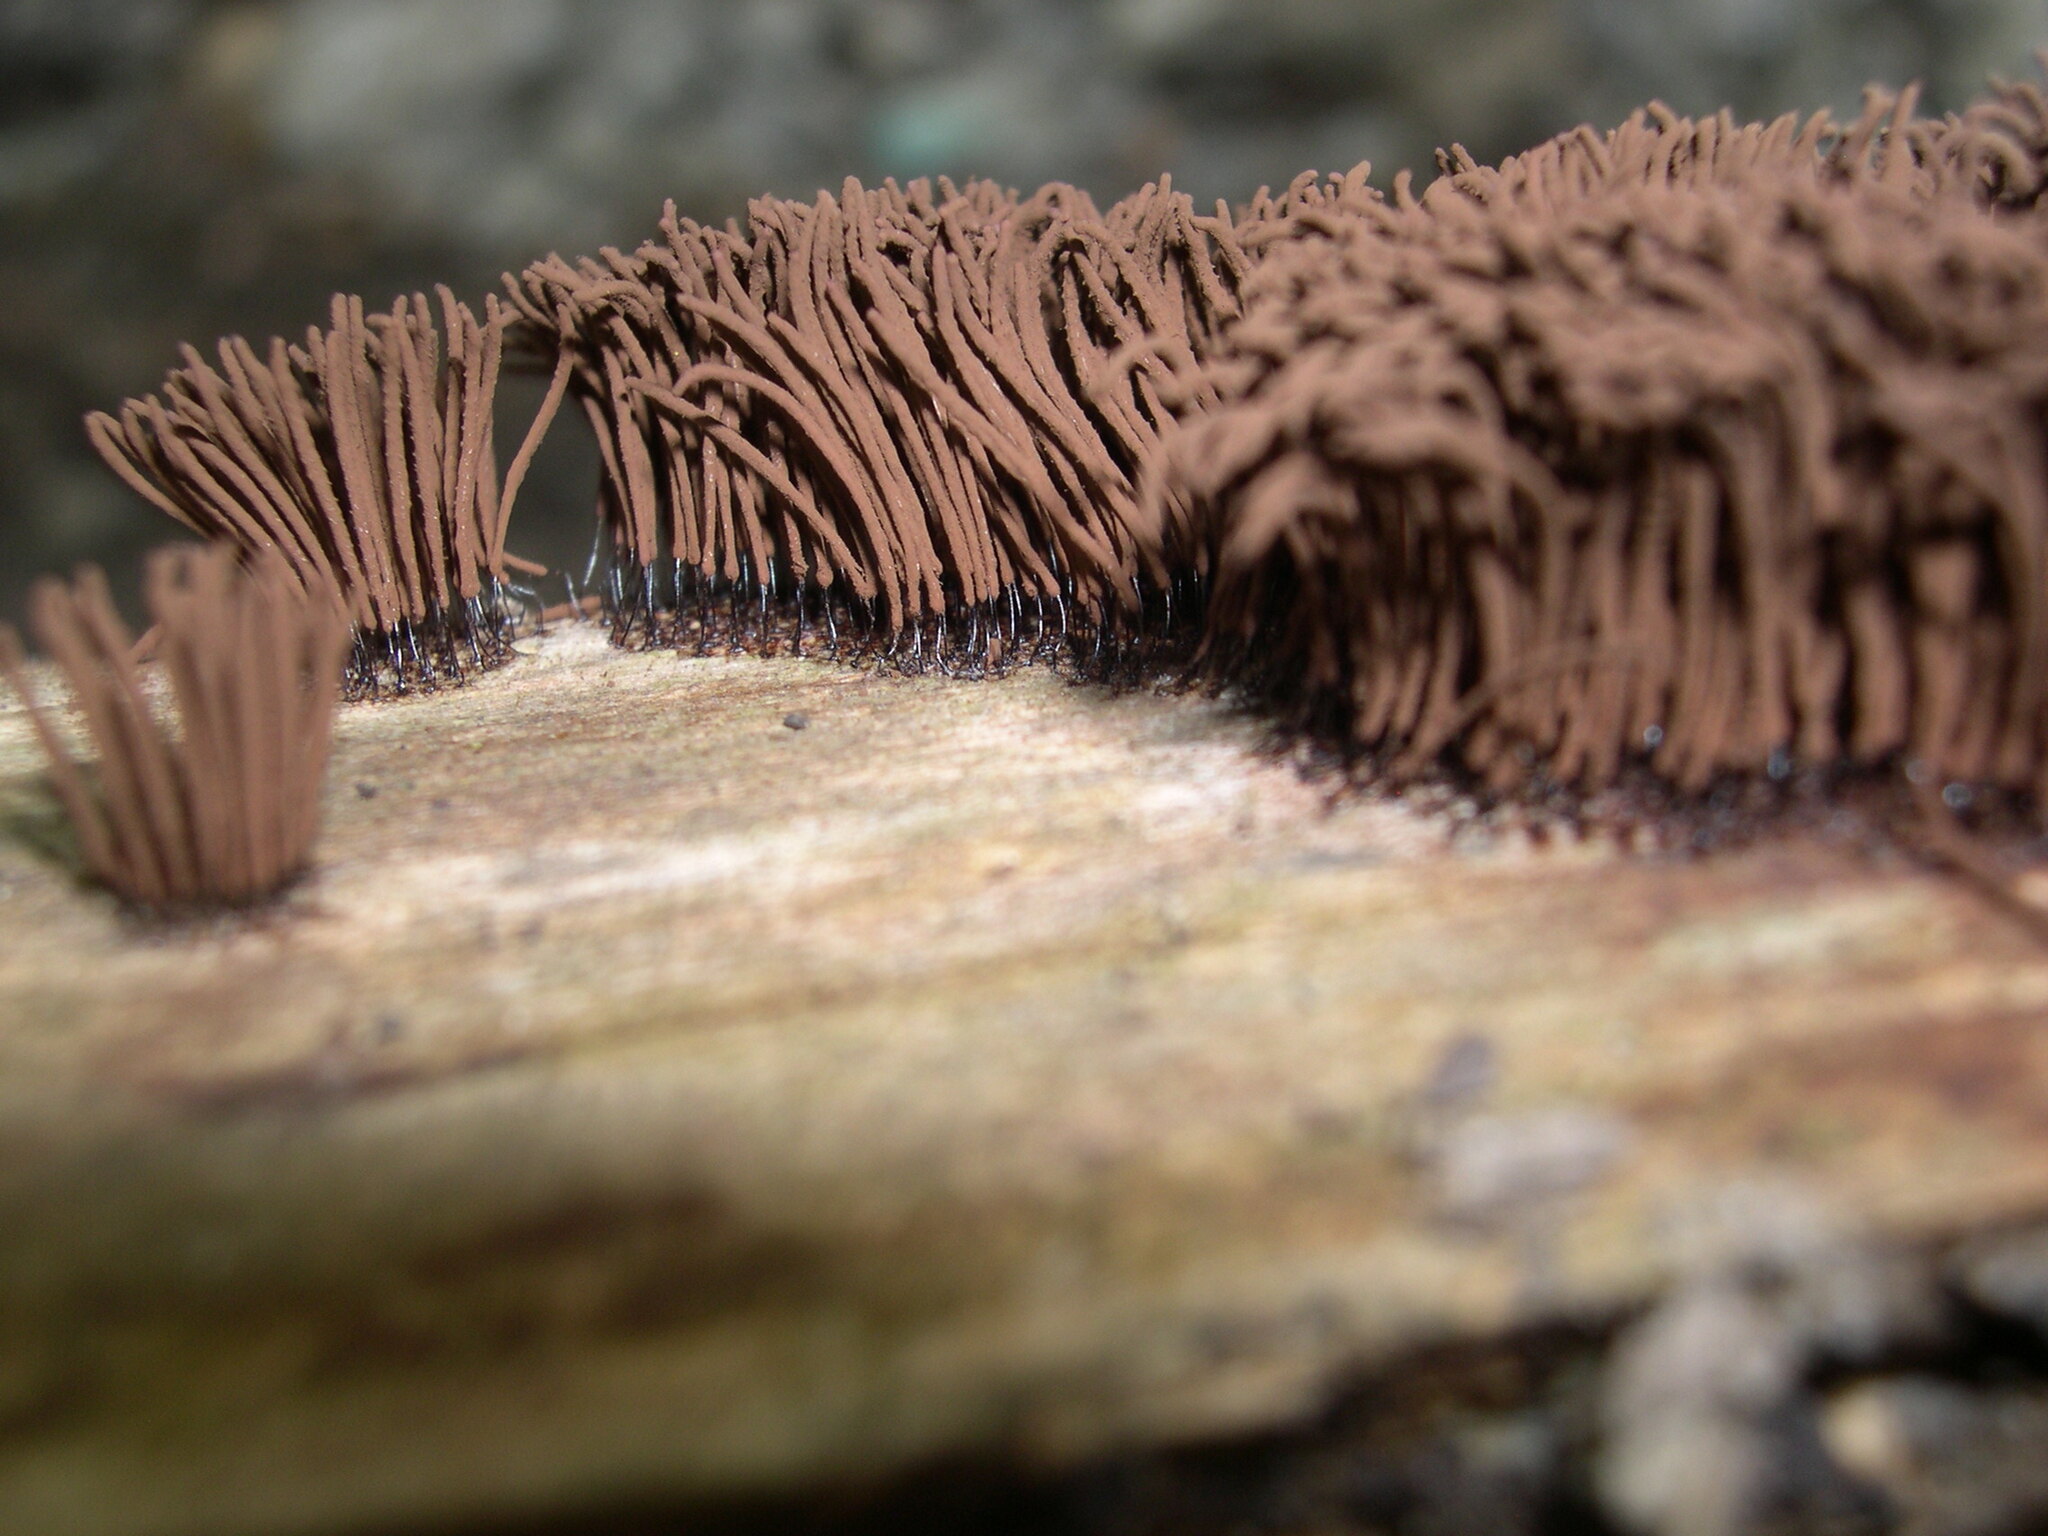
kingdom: Protozoa
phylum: Mycetozoa
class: Myxomycetes
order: Stemonitidales
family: Stemonitidaceae
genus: Stemonitis
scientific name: Stemonitis splendens
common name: Chocolate tube slime
